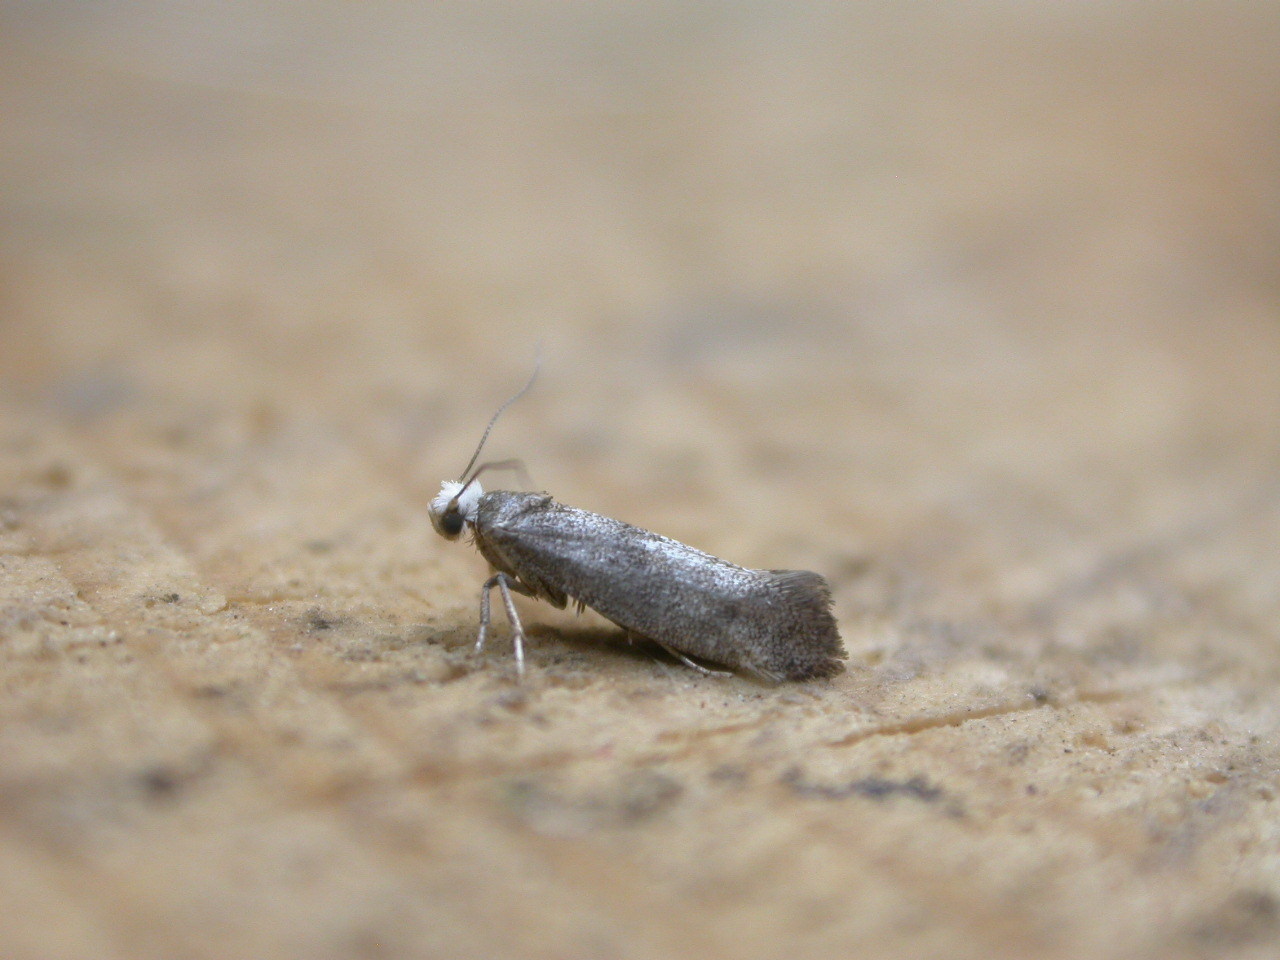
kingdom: Animalia
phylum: Arthropoda
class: Insecta
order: Lepidoptera
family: Yponomeutidae
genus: Swammerdamia
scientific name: Swammerdamia pyrella
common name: Little ermine moth
